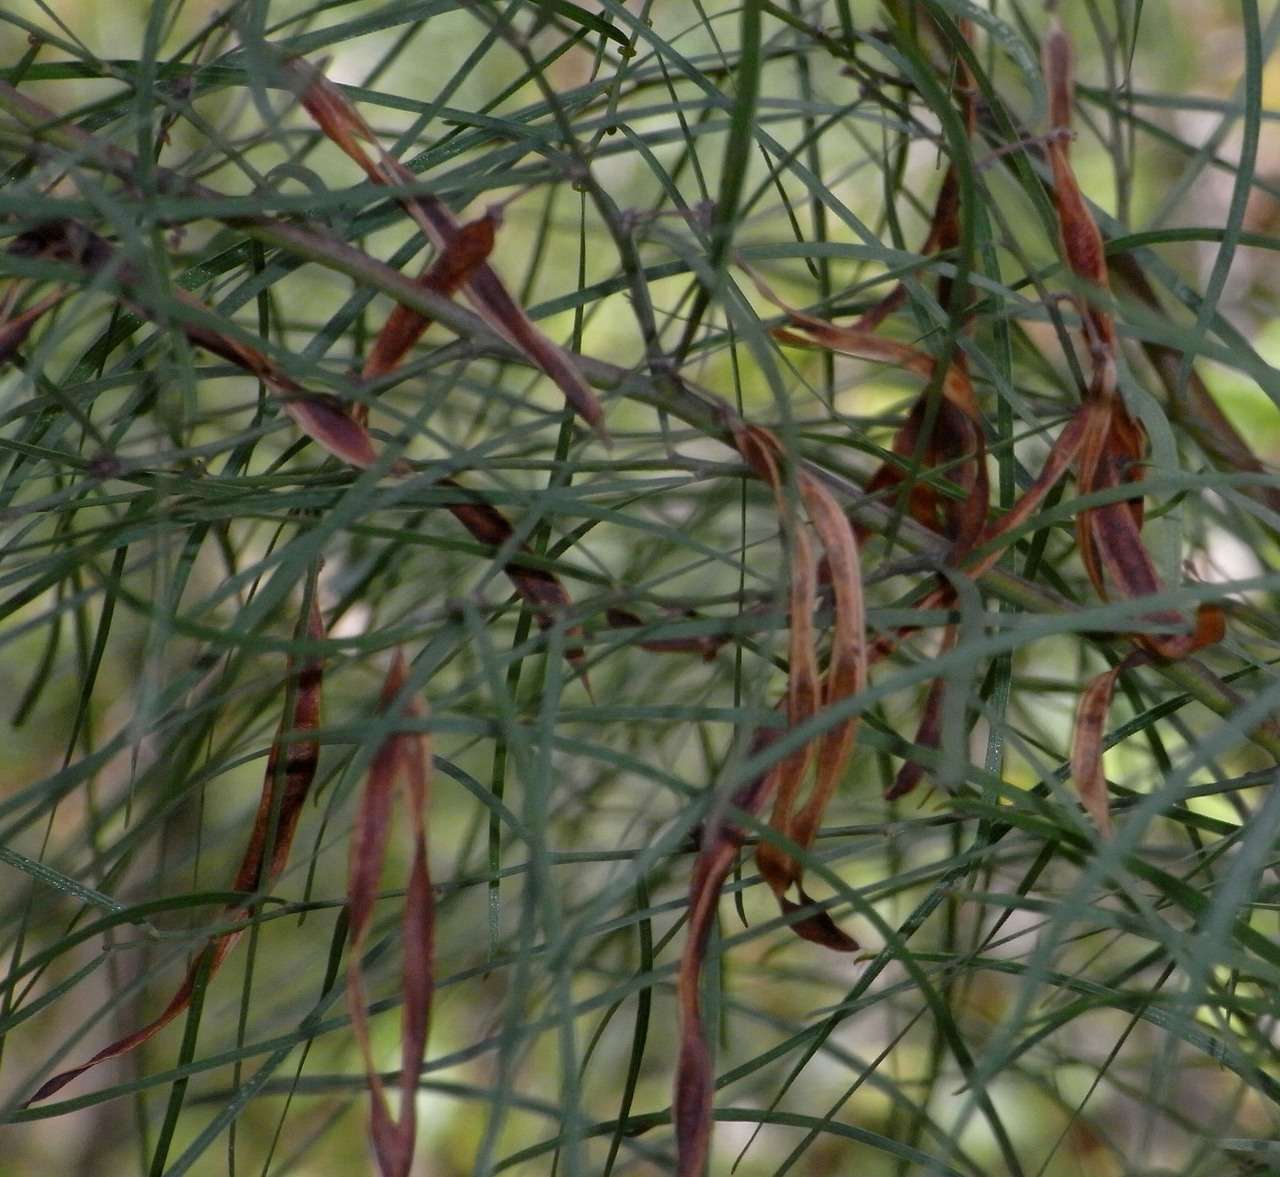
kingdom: Plantae
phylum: Tracheophyta
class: Magnoliopsida
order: Fabales
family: Fabaceae
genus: Acacia
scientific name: Acacia cognata
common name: Narrow-leaf bower wattle
